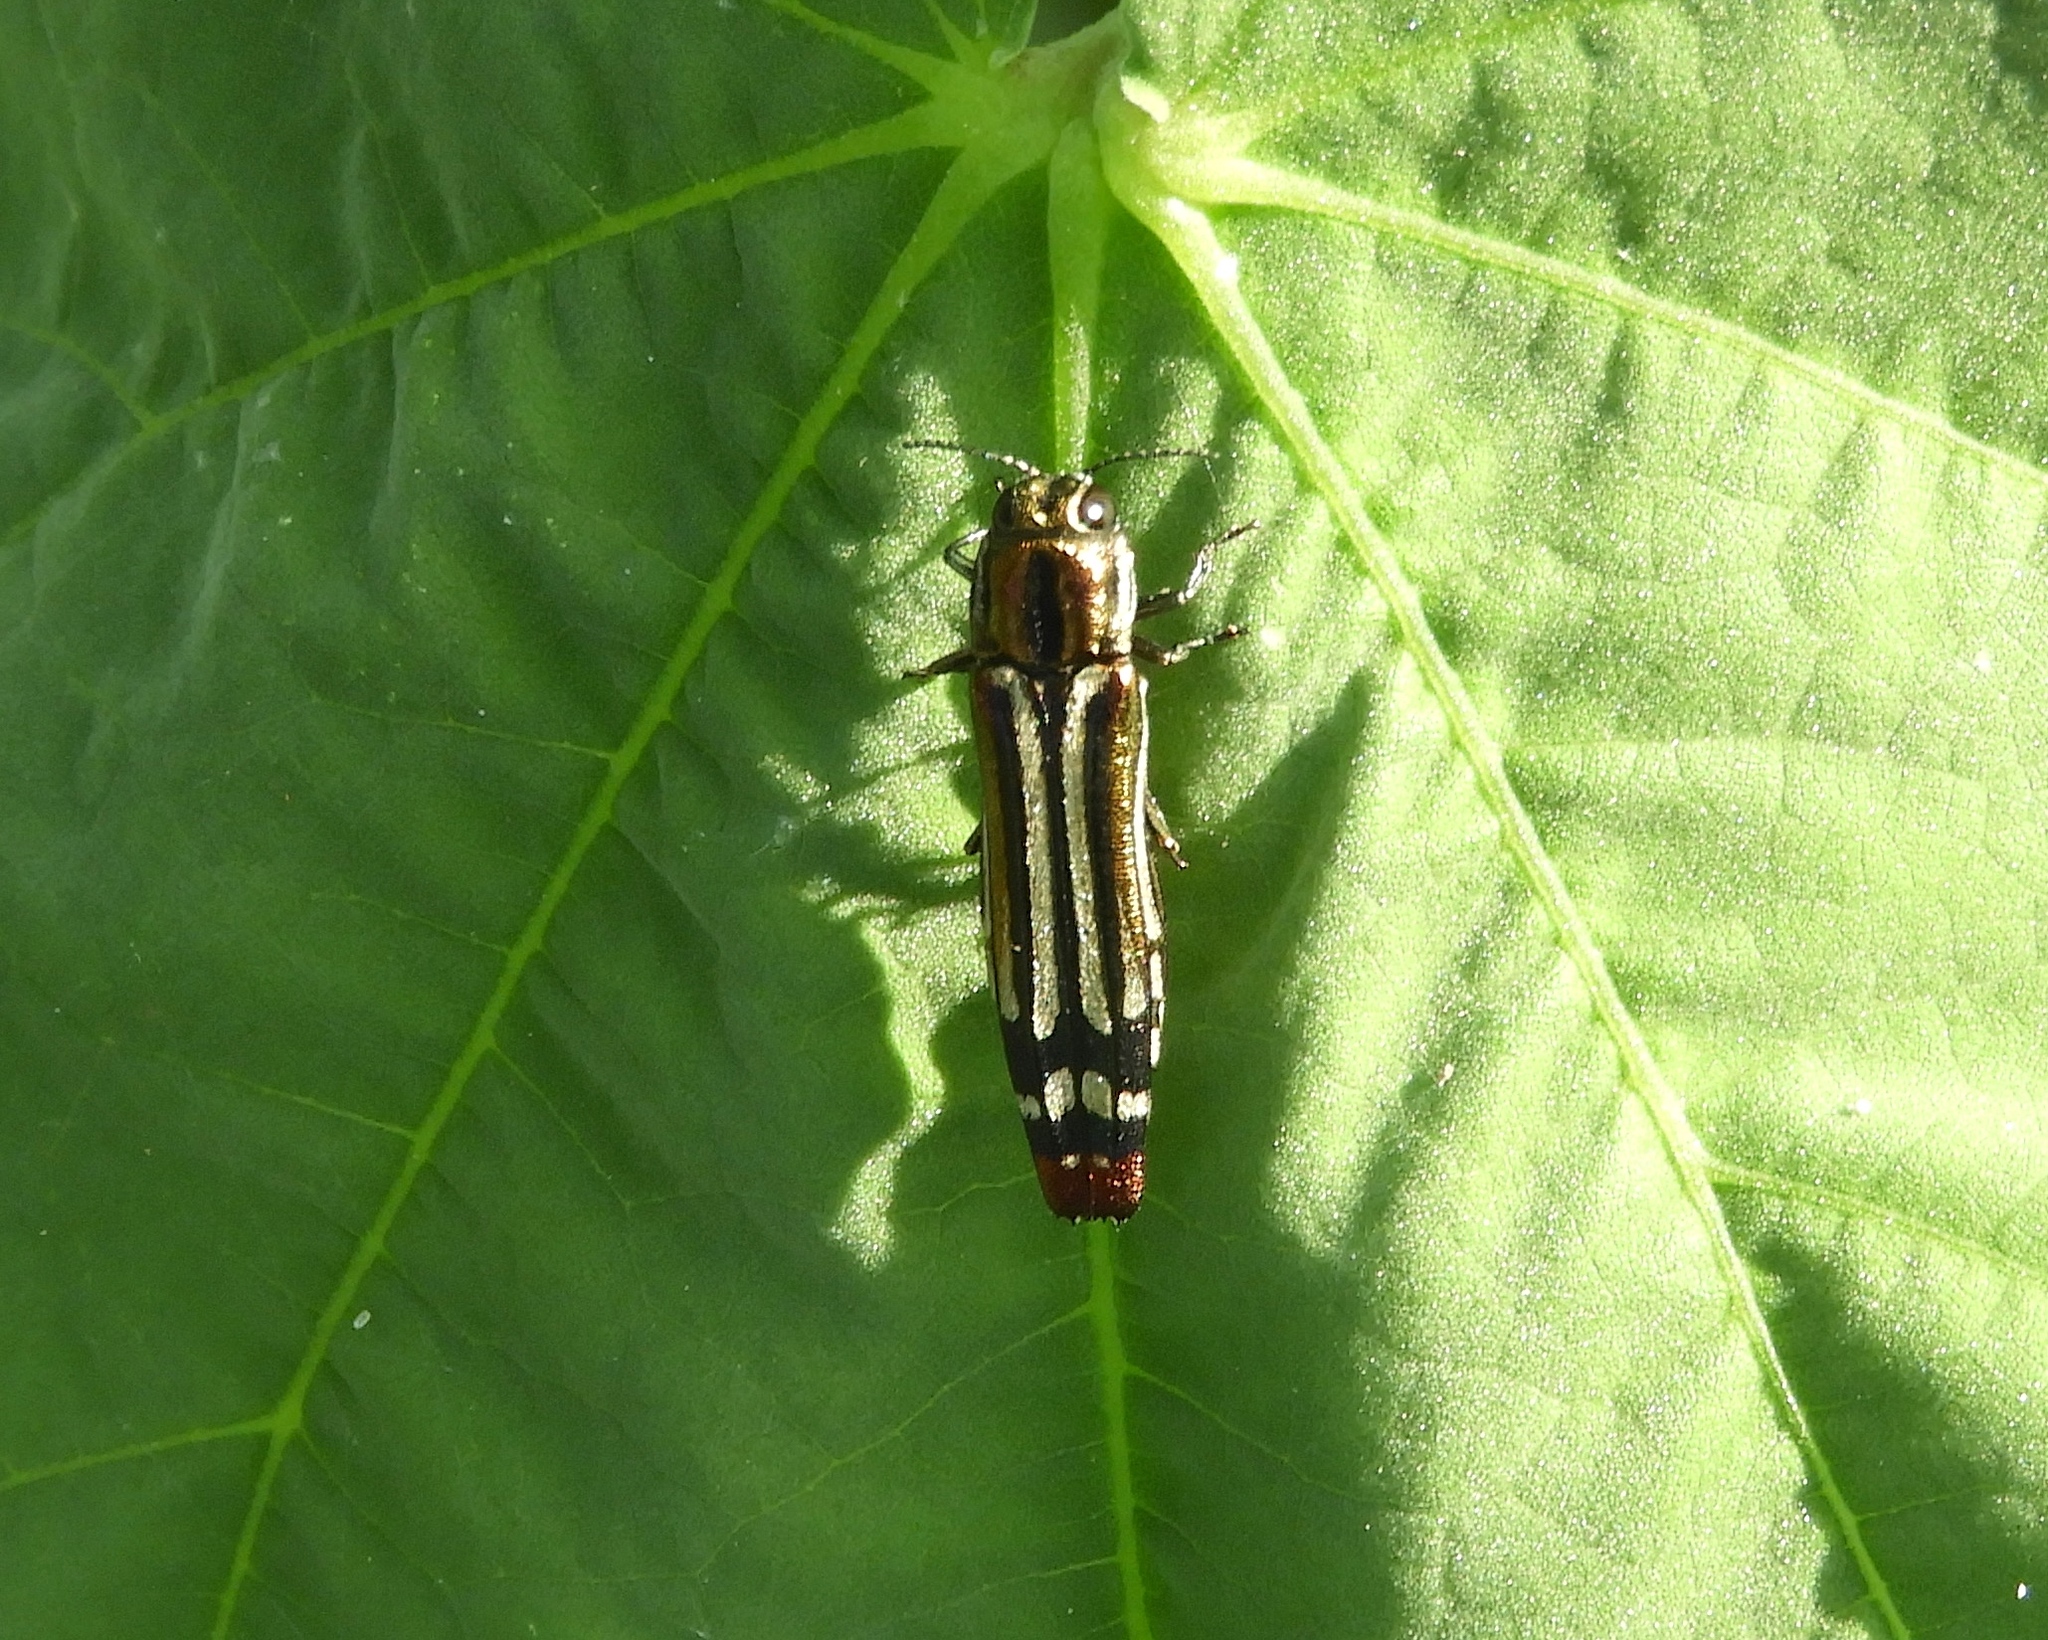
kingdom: Animalia
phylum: Arthropoda
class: Insecta
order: Coleoptera
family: Buprestidae
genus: Agrilus
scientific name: Agrilus catherinae
